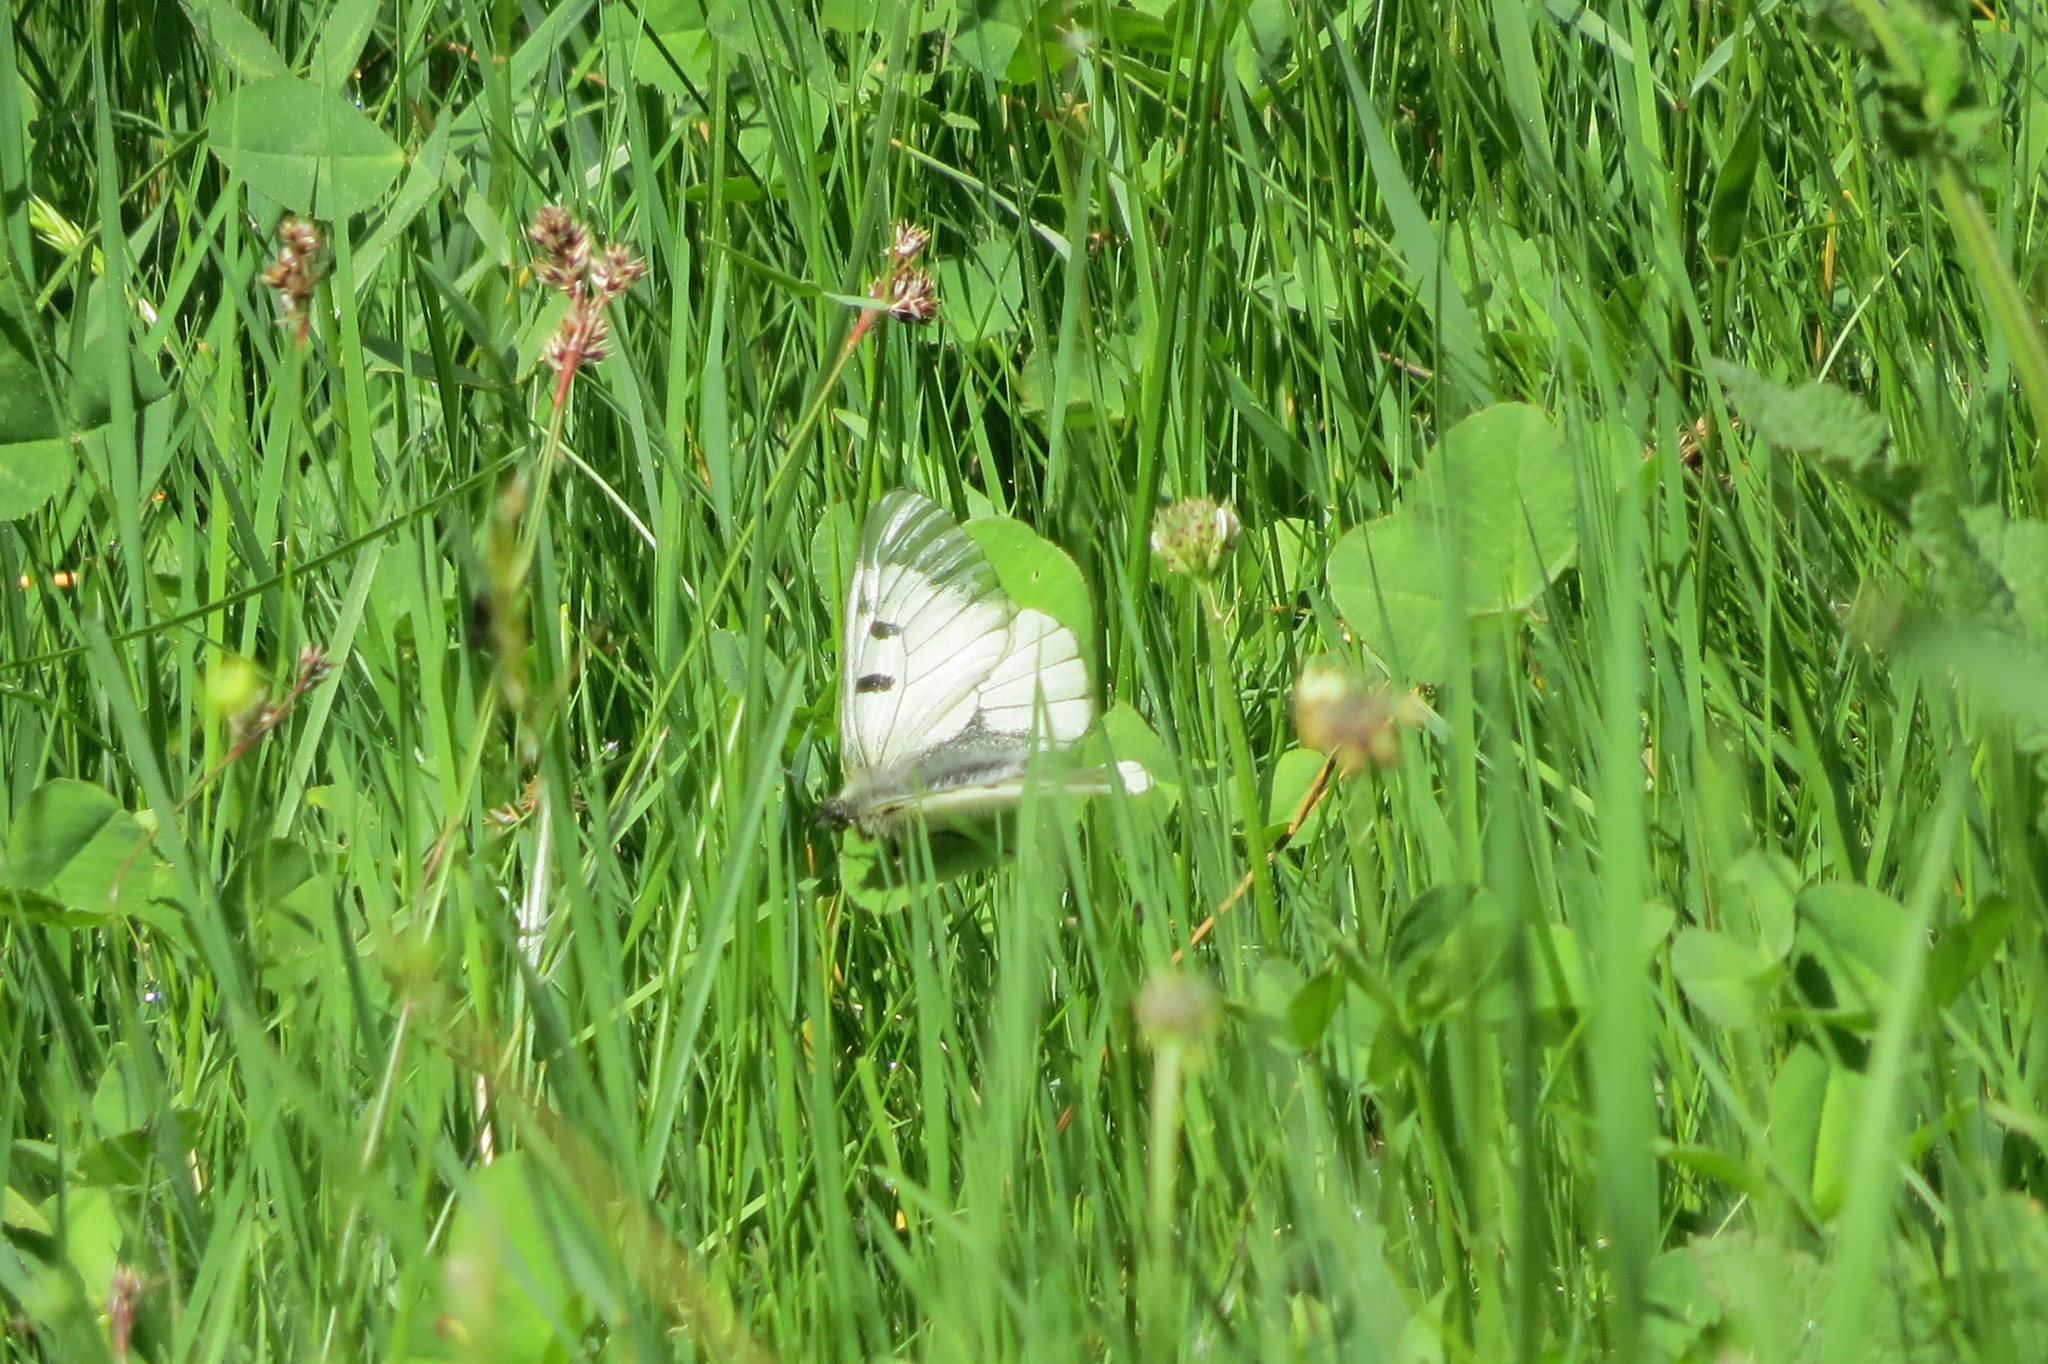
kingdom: Animalia
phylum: Arthropoda
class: Insecta
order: Lepidoptera
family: Papilionidae
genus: Parnassius
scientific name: Parnassius mnemosyne
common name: Clouded apollo
